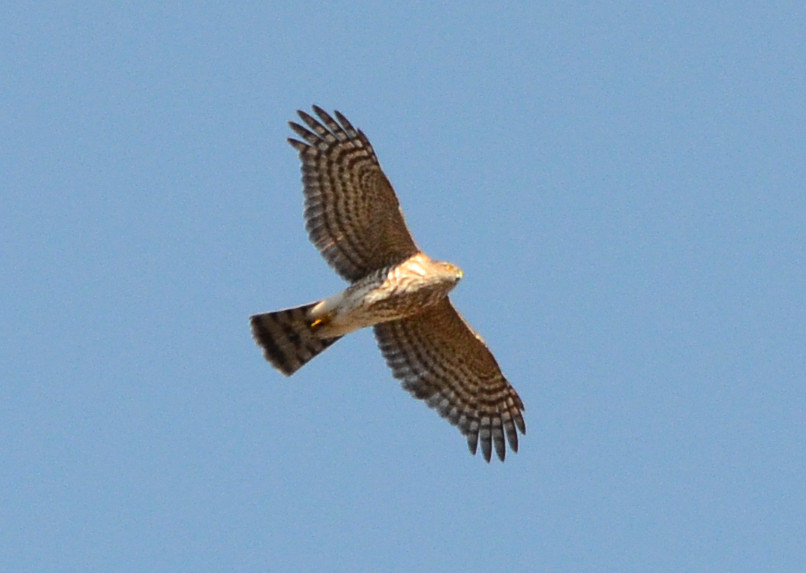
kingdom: Animalia
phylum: Chordata
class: Aves
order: Accipitriformes
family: Accipitridae
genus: Accipiter
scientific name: Accipiter striatus
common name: Sharp-shinned hawk
